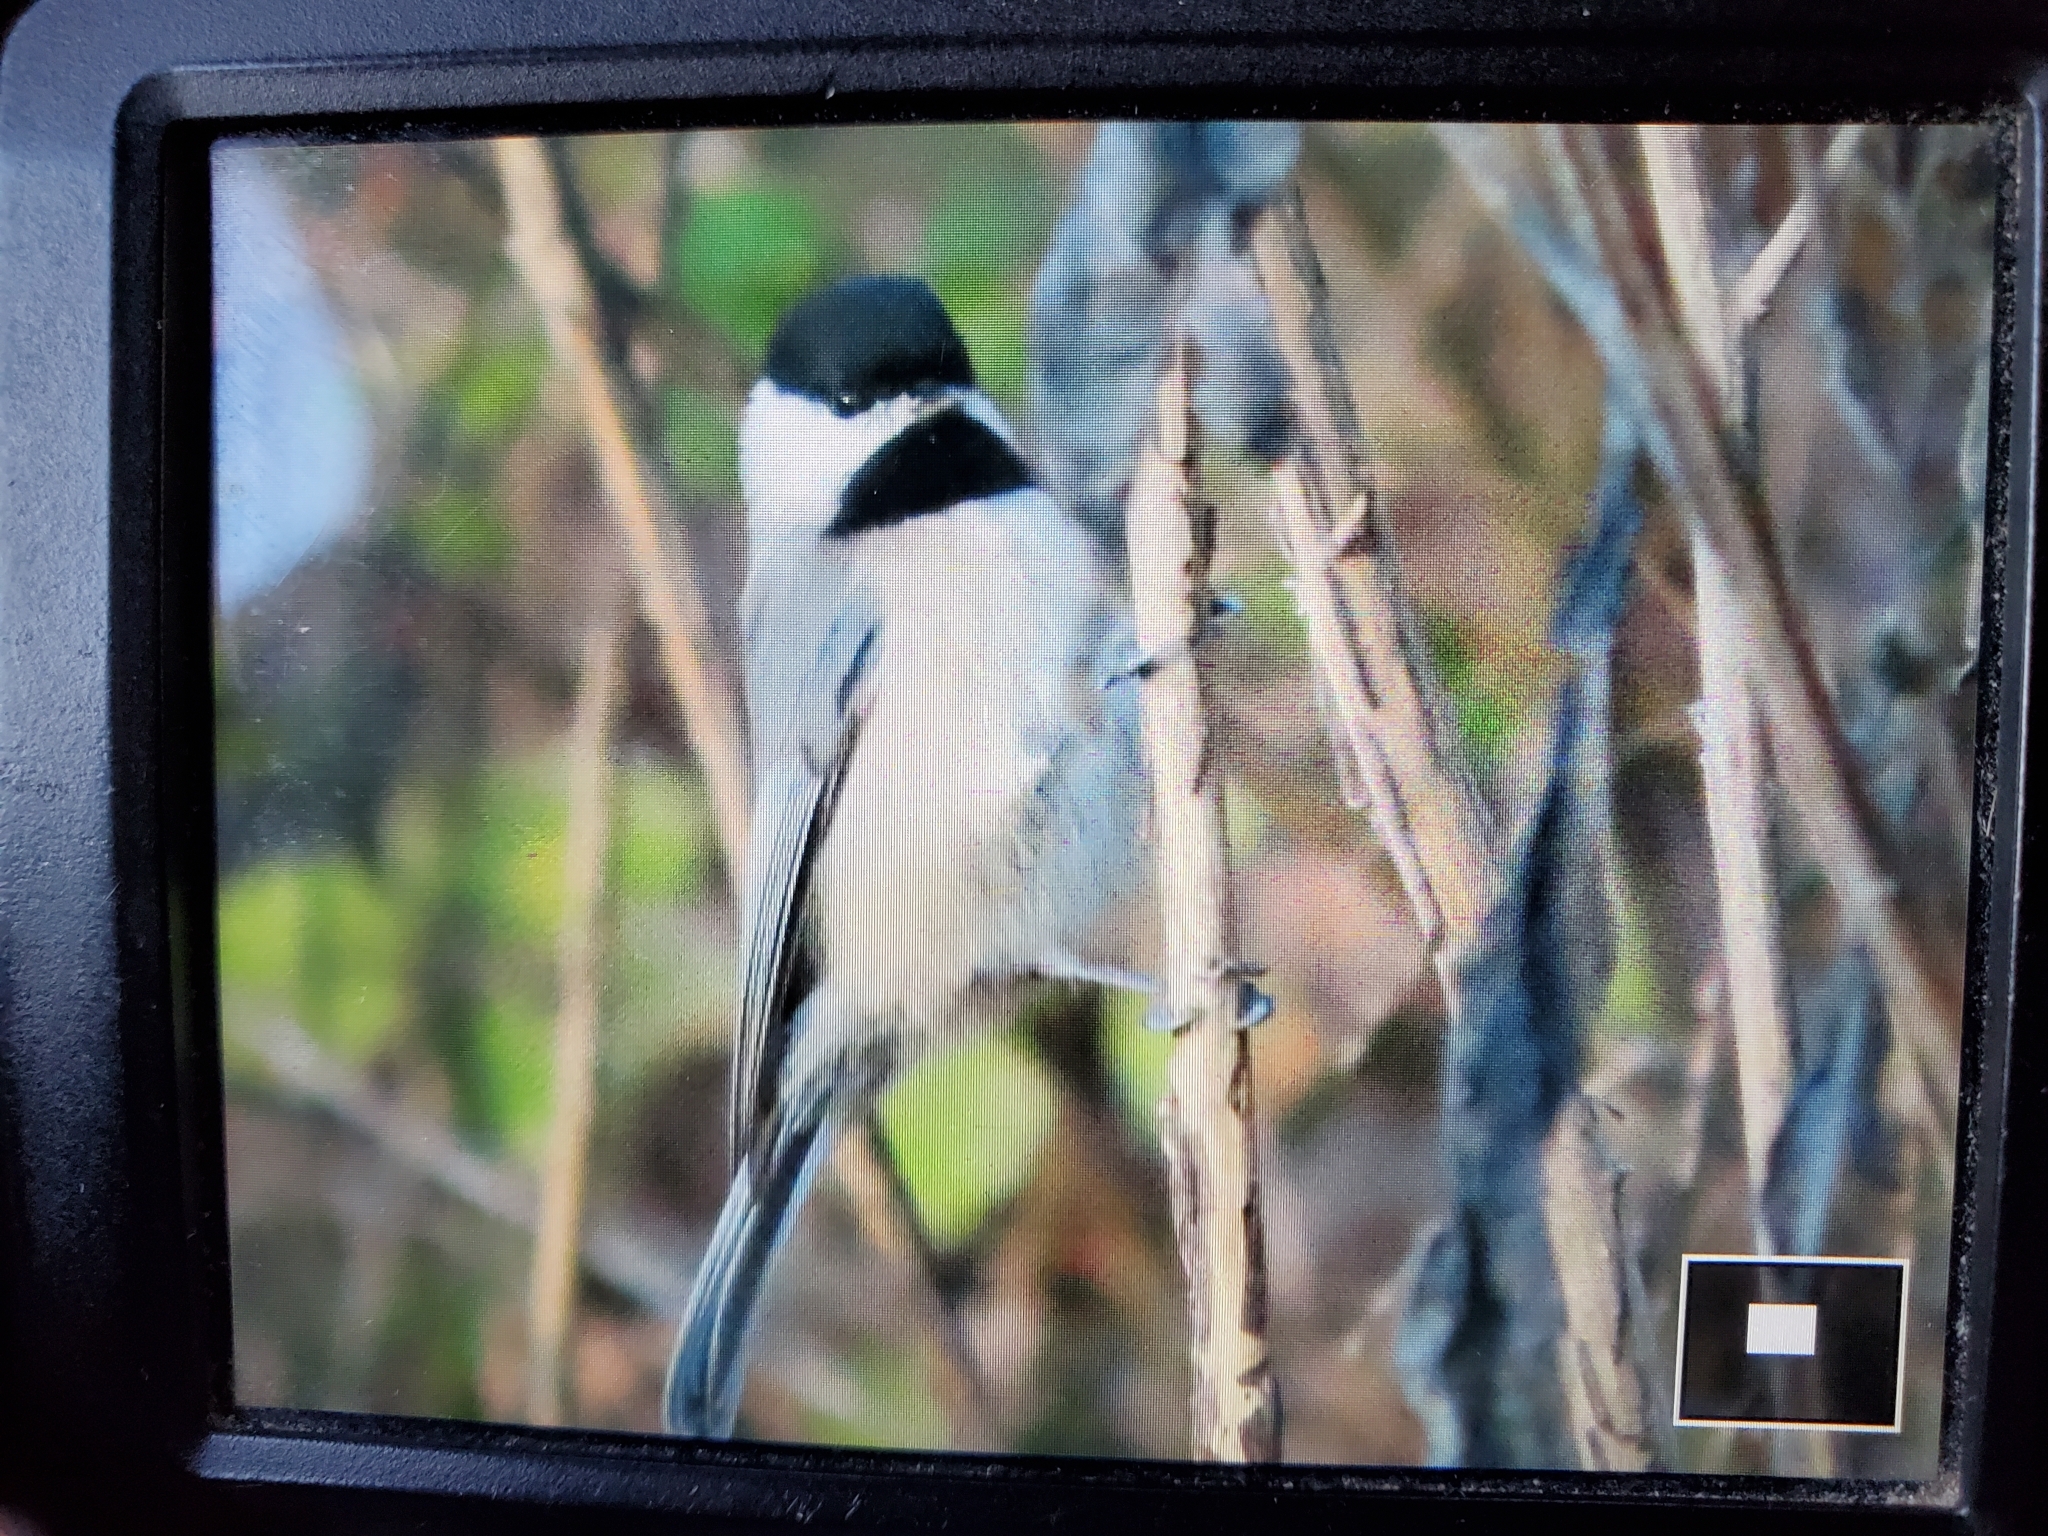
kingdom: Animalia
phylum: Chordata
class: Aves
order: Passeriformes
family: Paridae
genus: Poecile
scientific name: Poecile carolinensis
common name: Carolina chickadee
